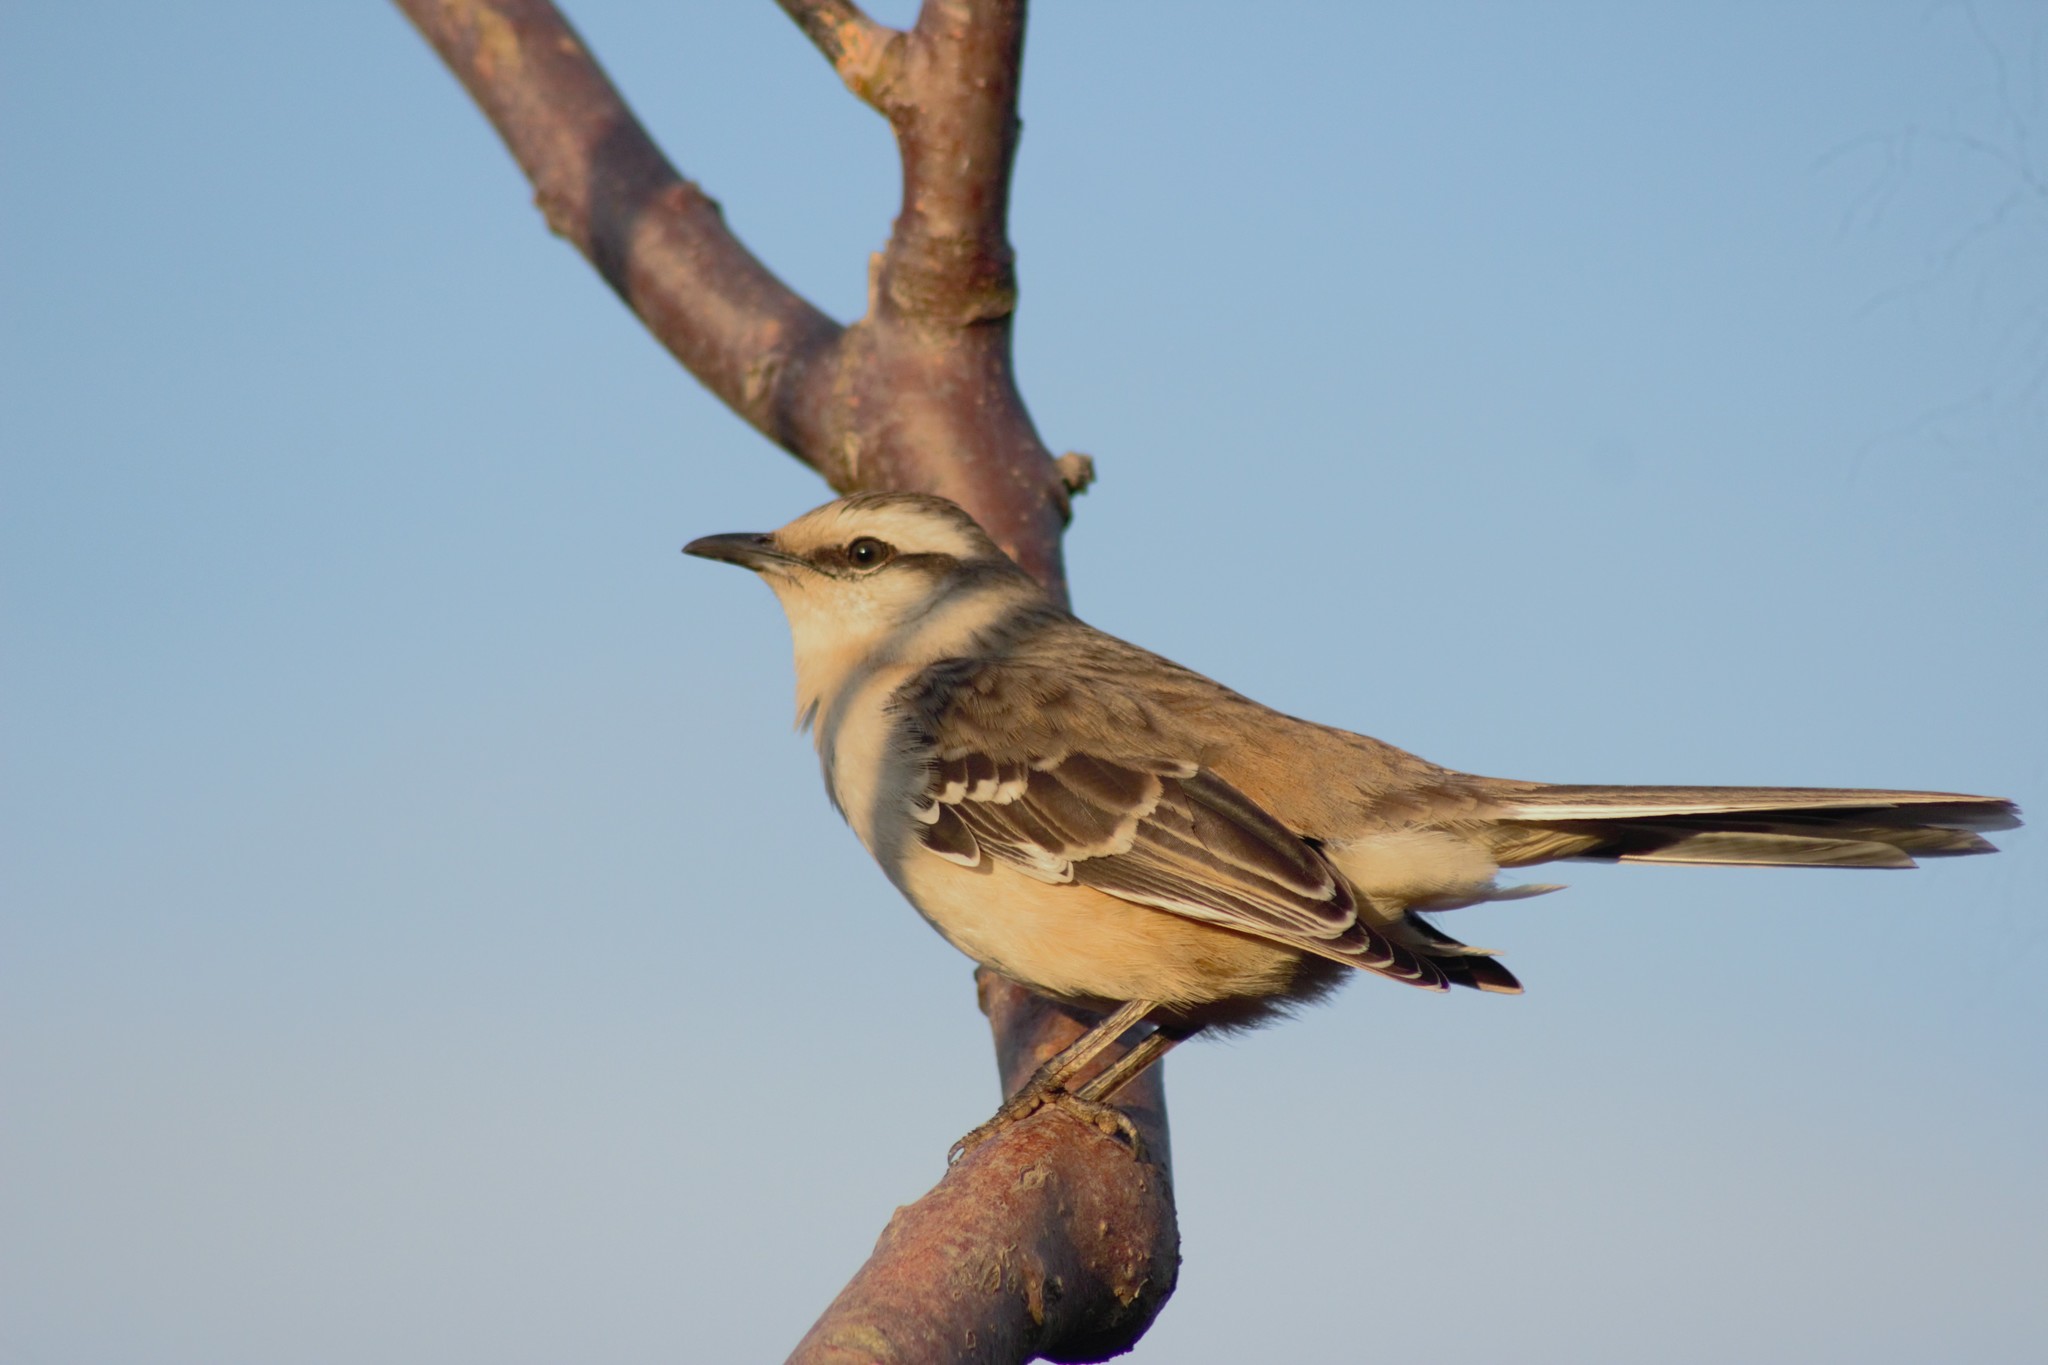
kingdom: Animalia
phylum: Chordata
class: Aves
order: Passeriformes
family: Mimidae
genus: Mimus
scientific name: Mimus saturninus
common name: Chalk-browed mockingbird
